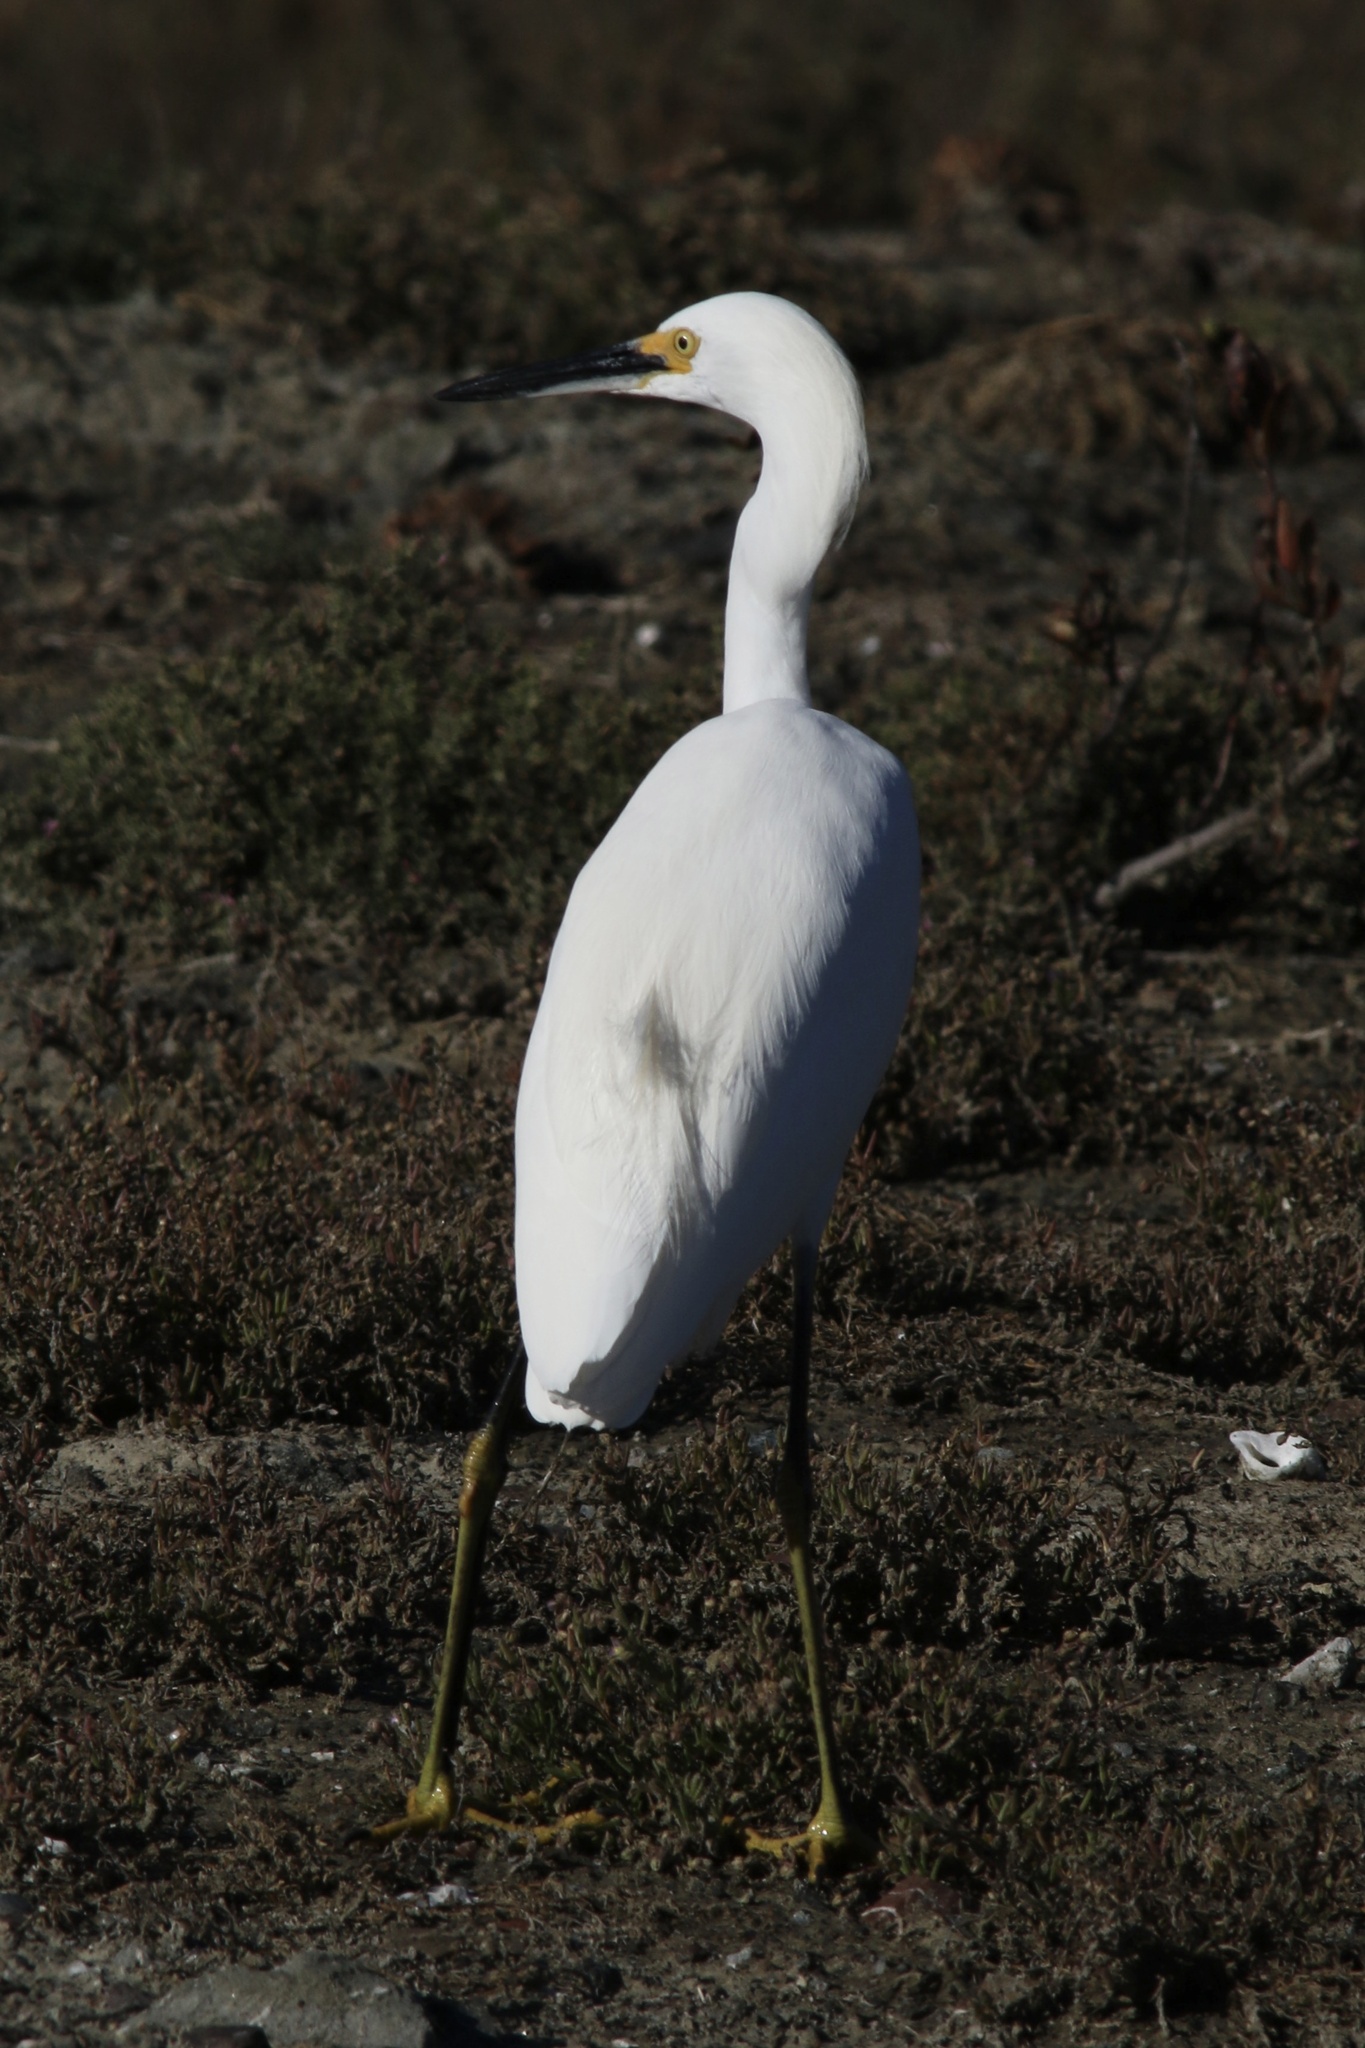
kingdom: Animalia
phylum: Chordata
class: Aves
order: Pelecaniformes
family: Ardeidae
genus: Egretta
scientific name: Egretta thula
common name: Snowy egret
